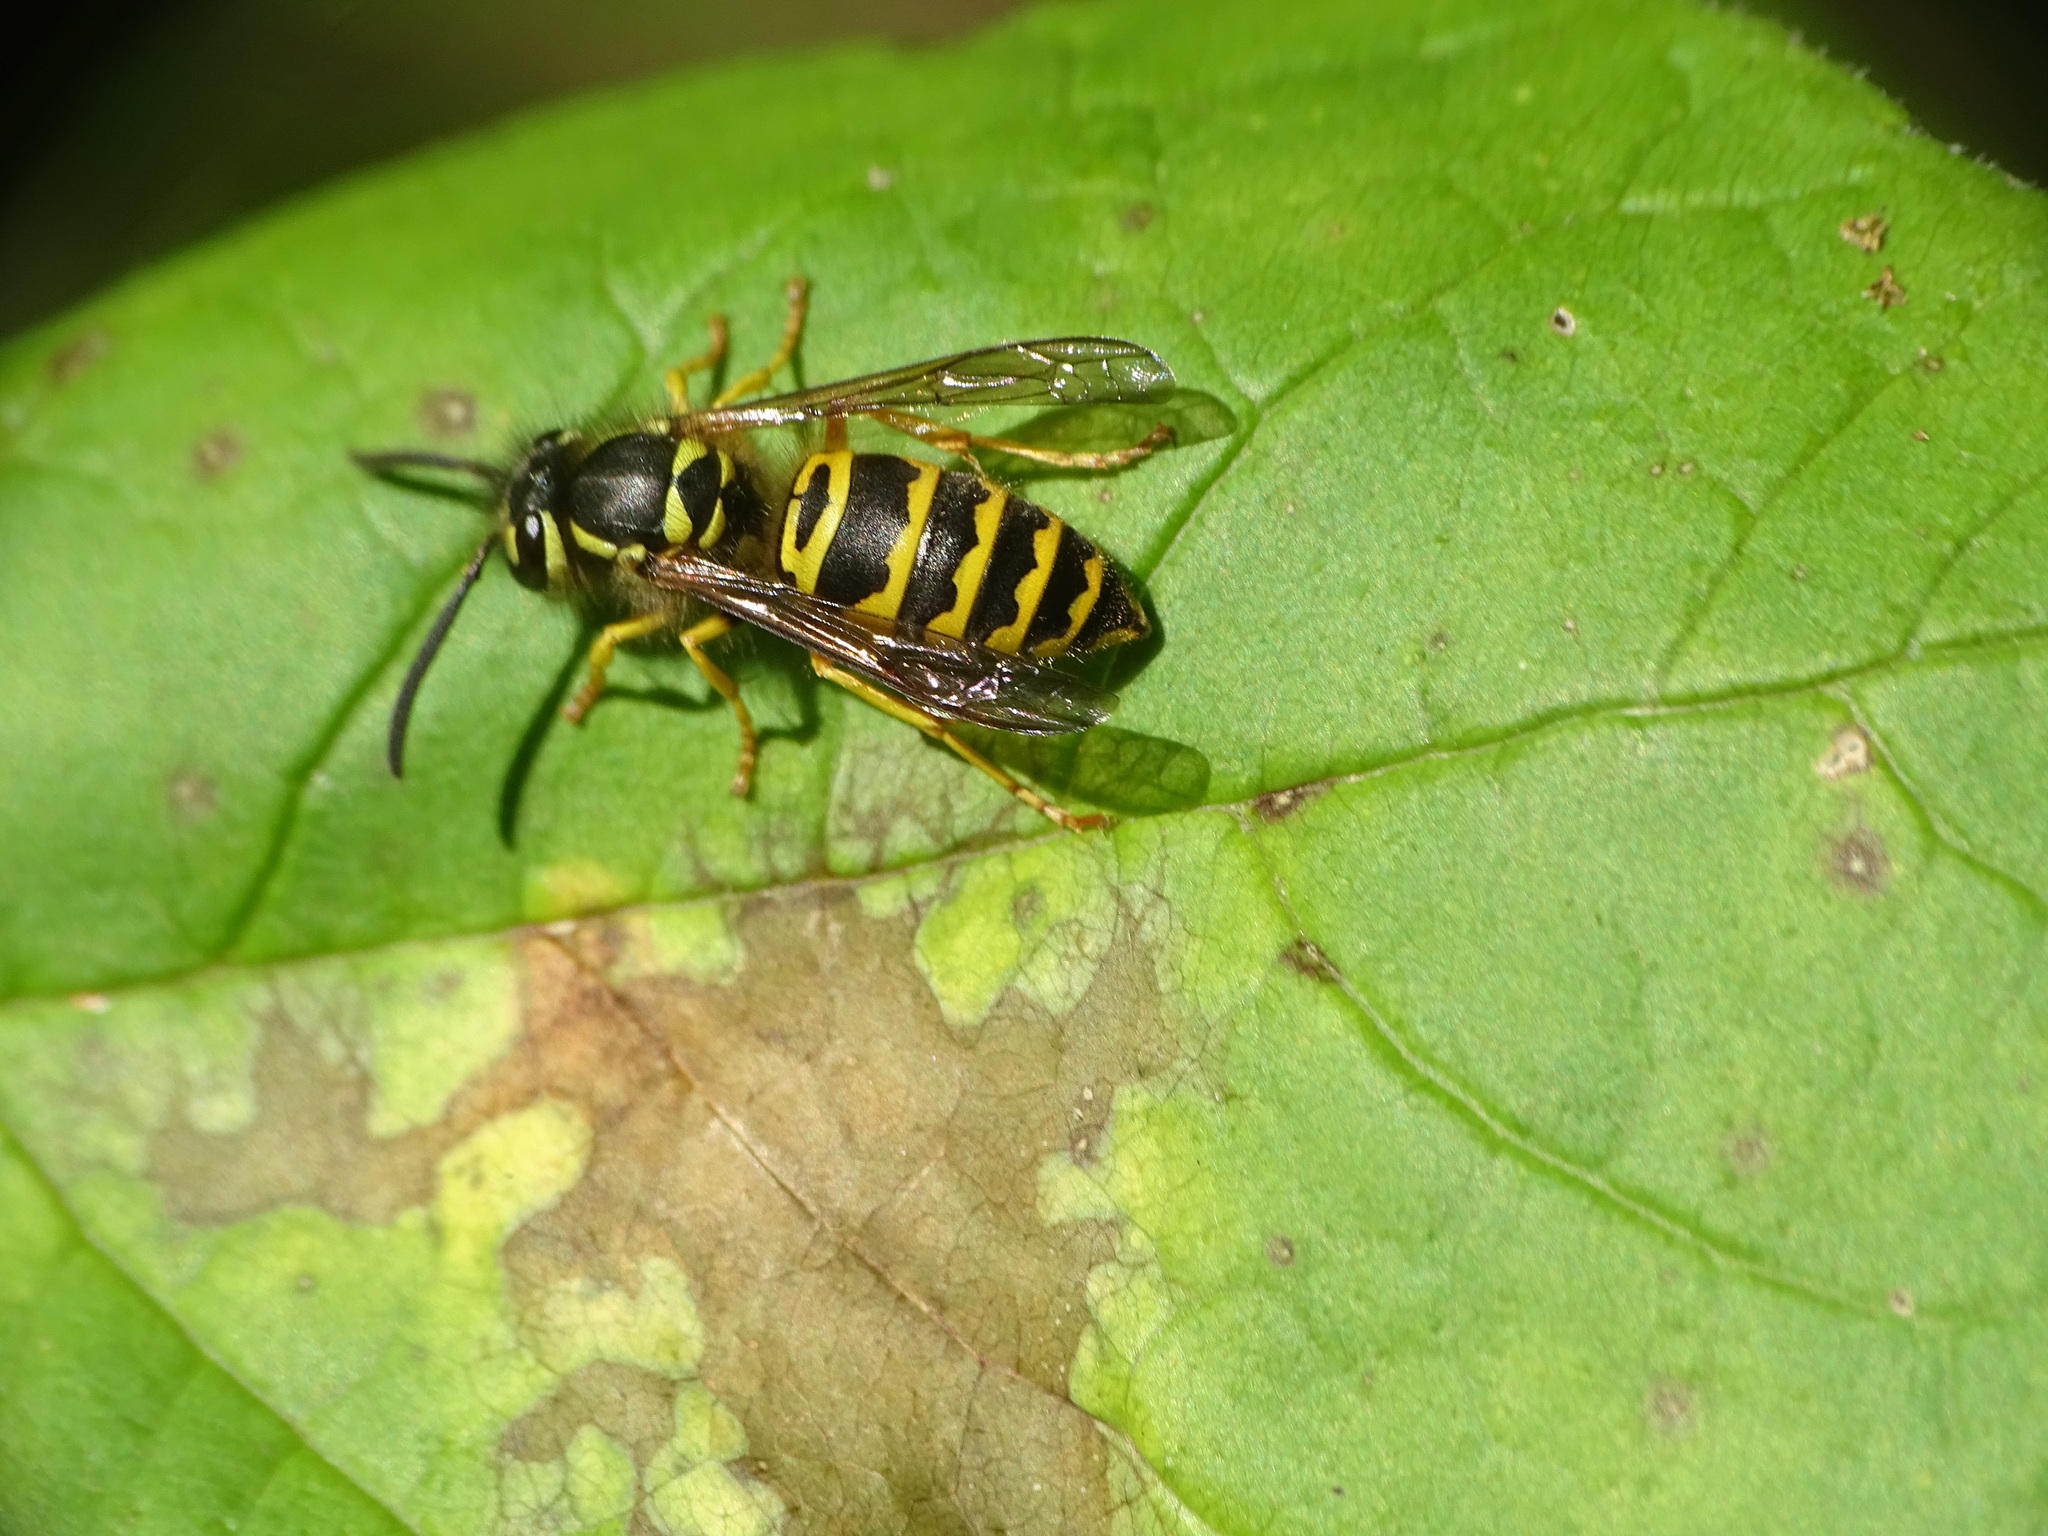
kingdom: Animalia
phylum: Arthropoda
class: Insecta
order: Hymenoptera
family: Vespidae
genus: Vespula
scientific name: Vespula maculifrons
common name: Eastern yellowjacket
